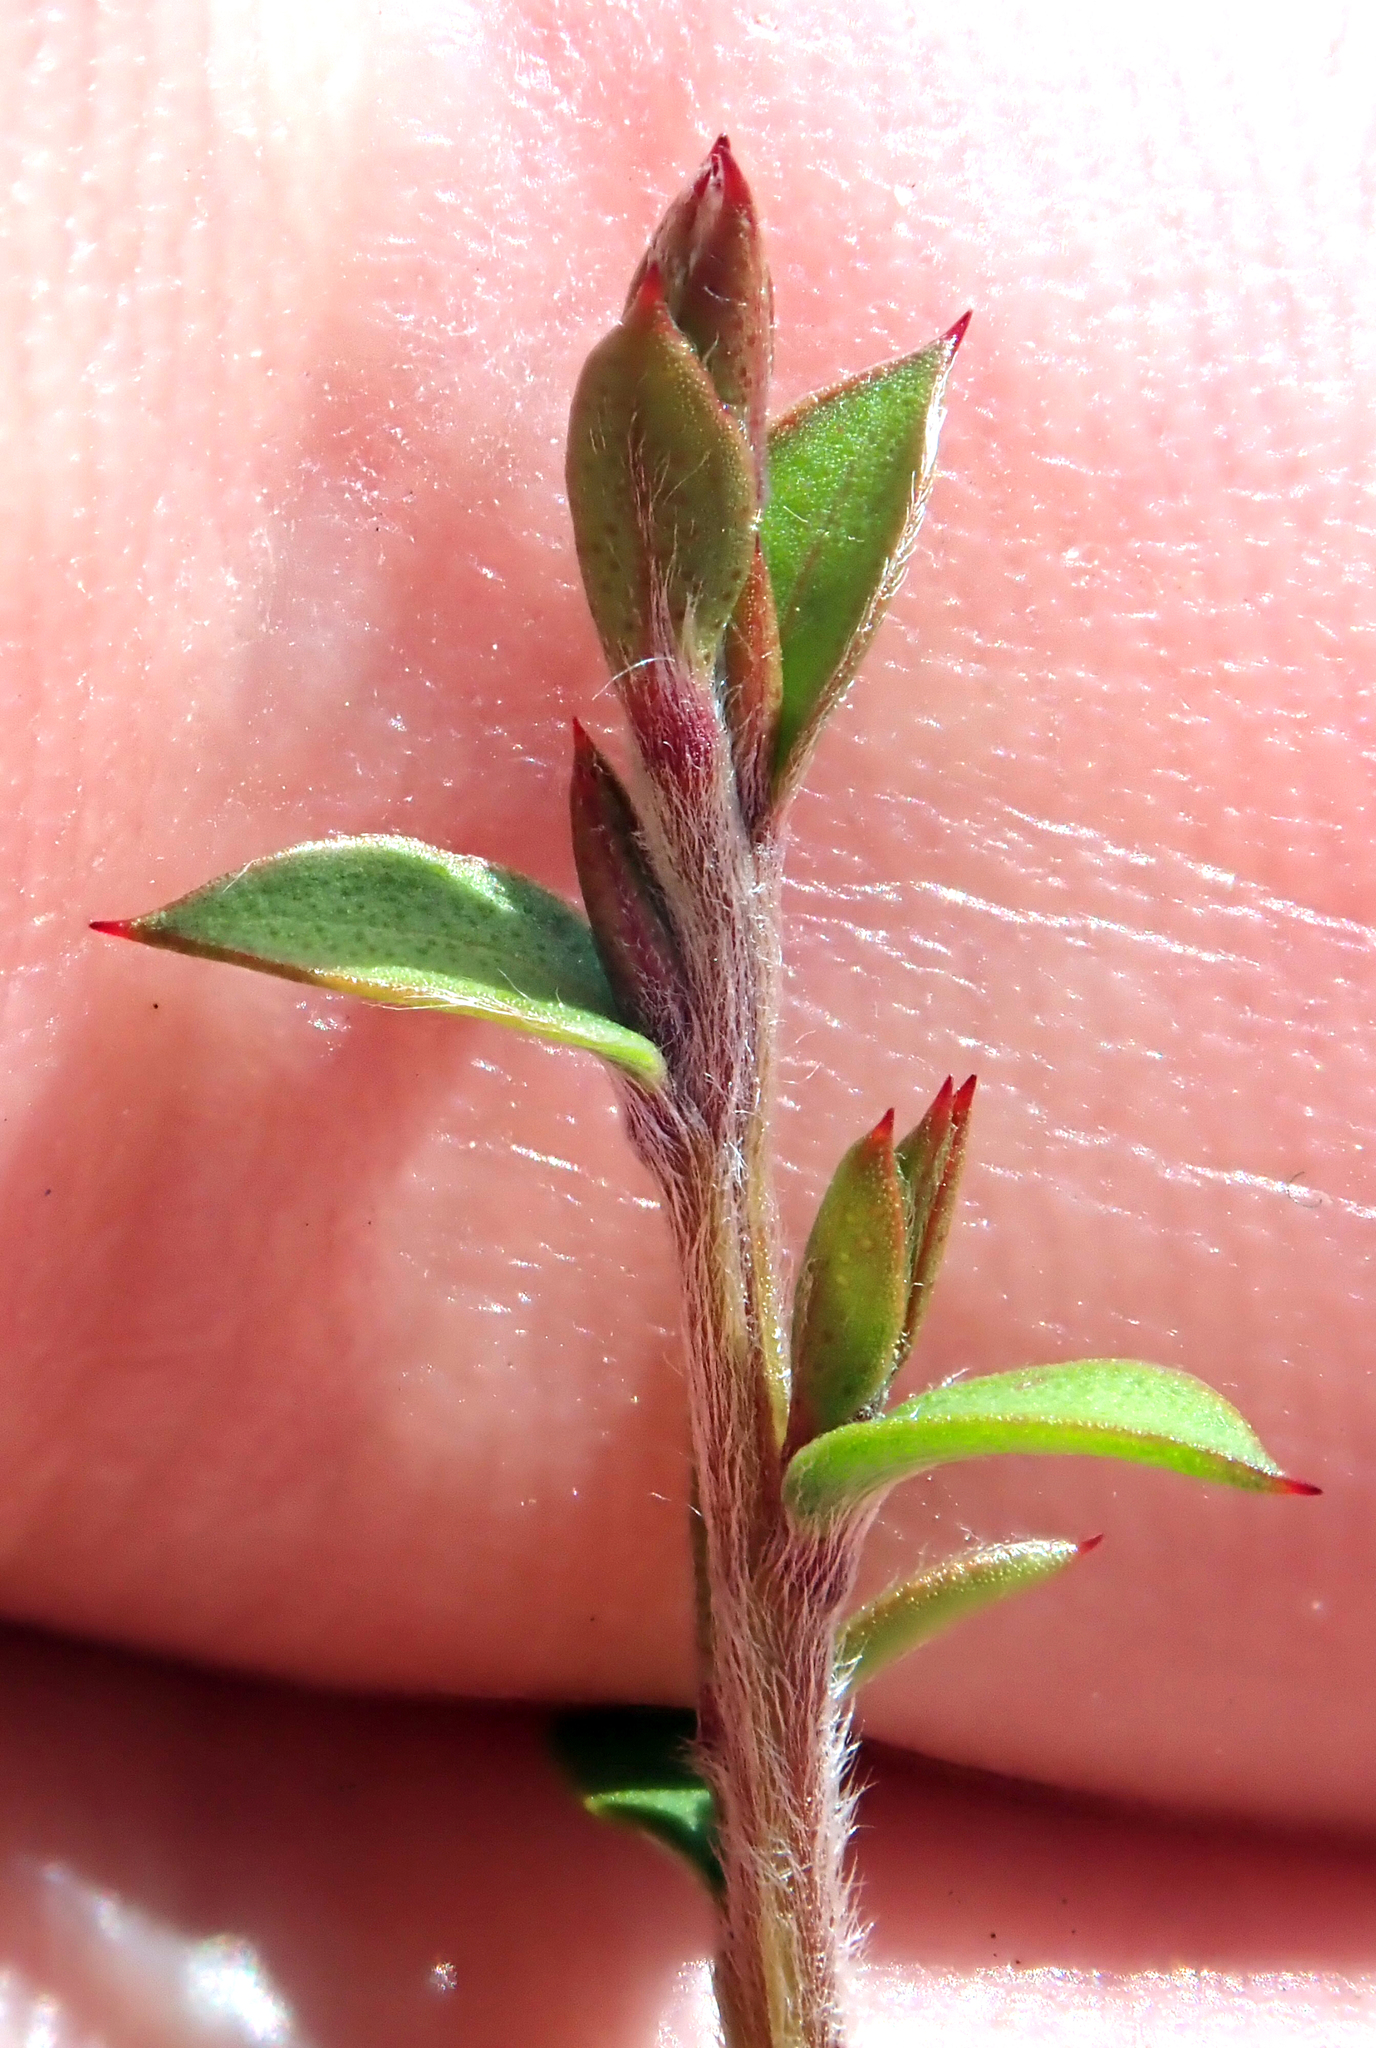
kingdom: Plantae
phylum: Tracheophyta
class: Magnoliopsida
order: Myrtales
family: Myrtaceae
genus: Leptospermum
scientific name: Leptospermum scoparium
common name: Broom tea-tree
